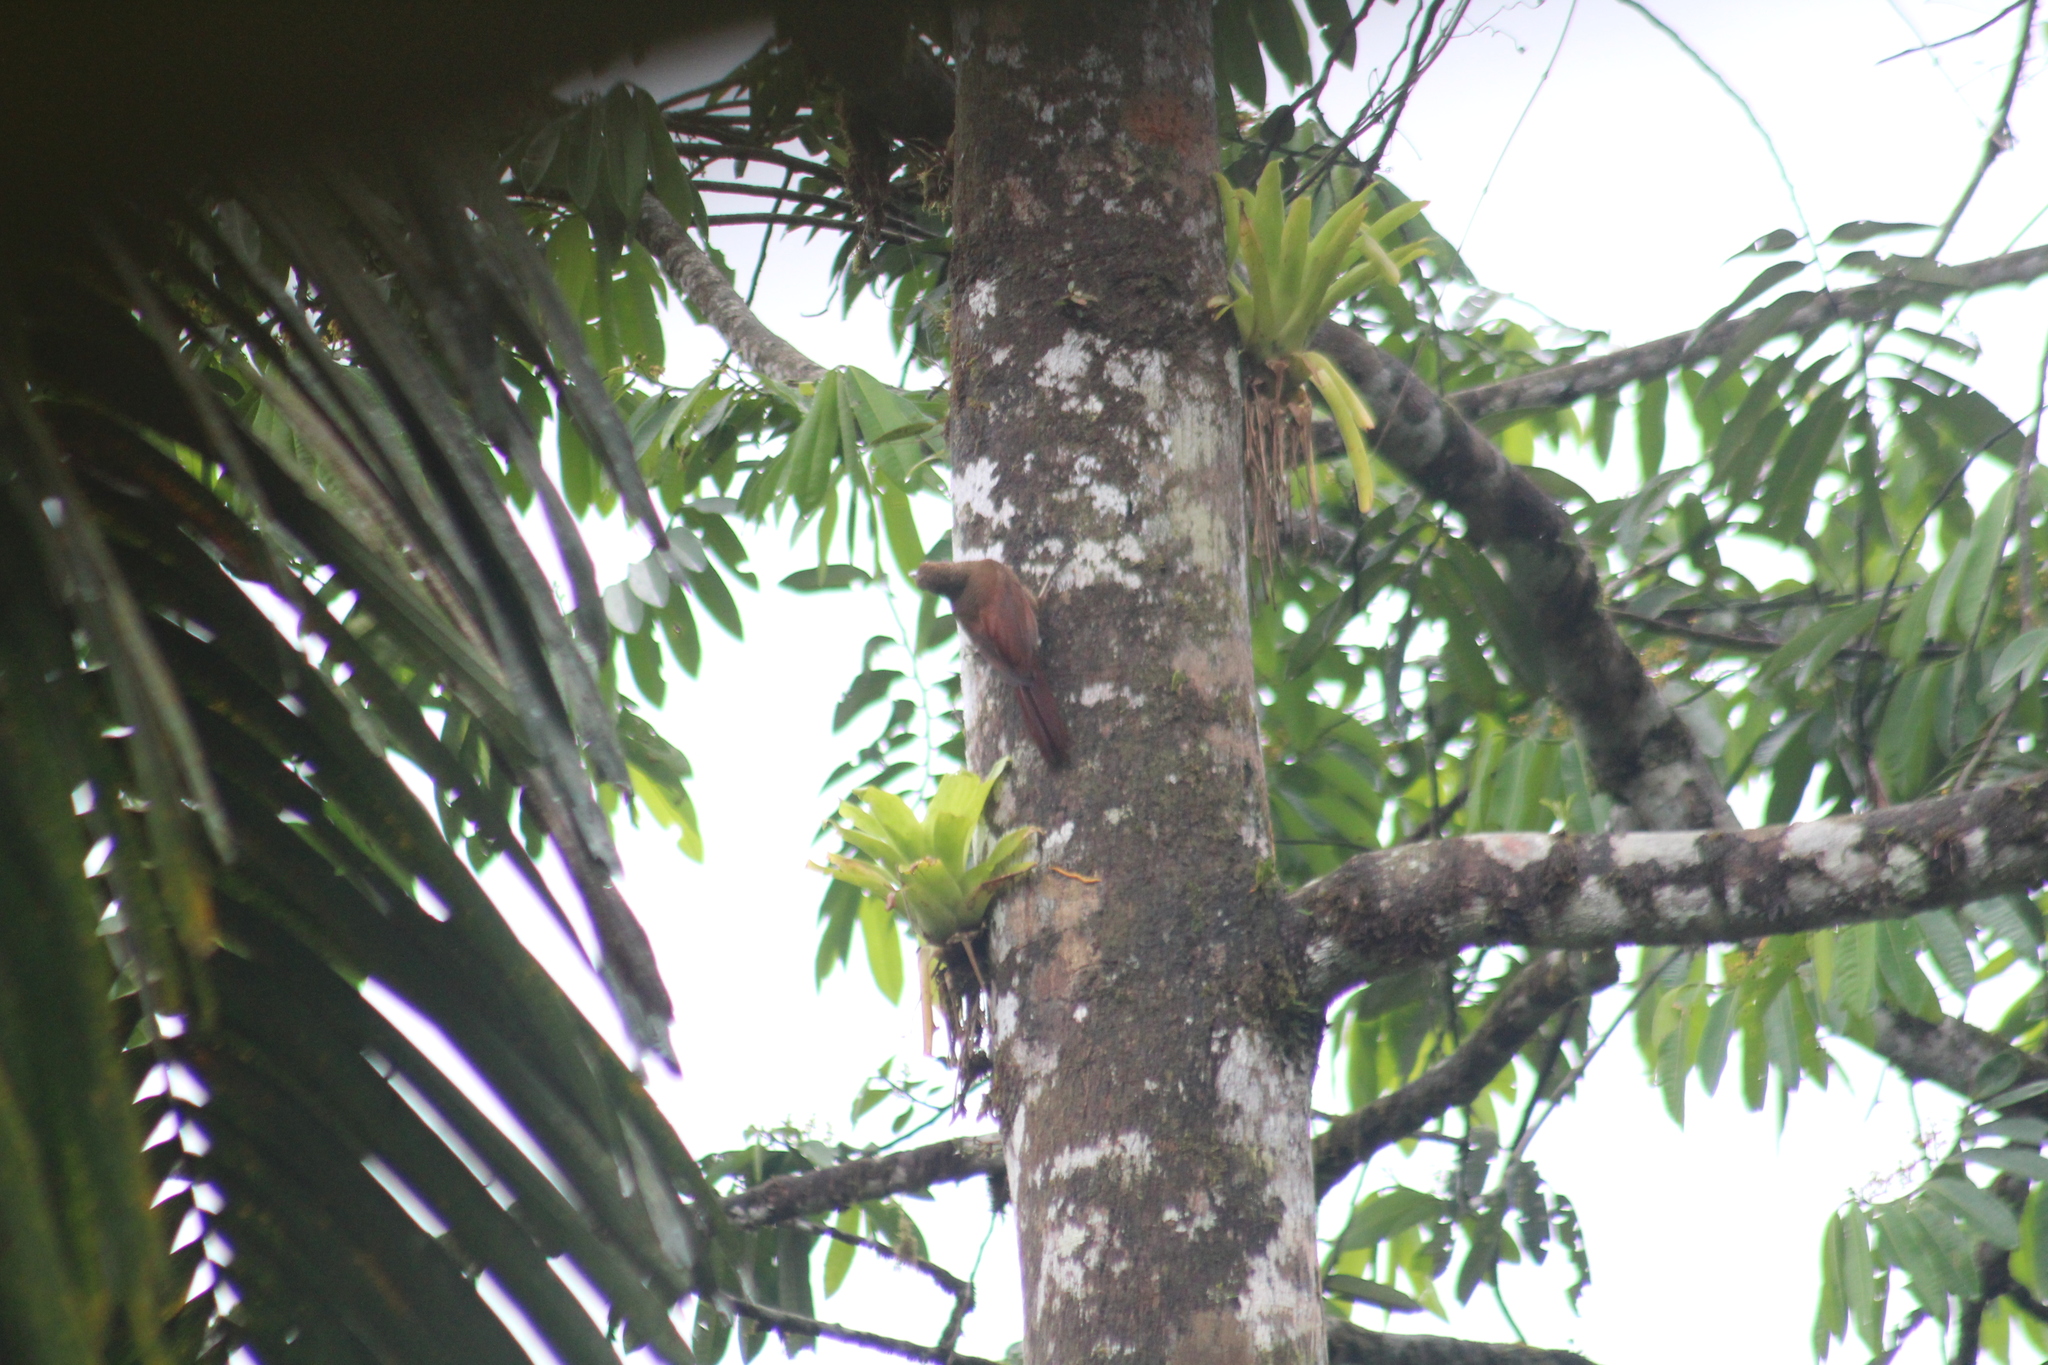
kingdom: Animalia
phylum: Chordata
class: Aves
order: Passeriformes
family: Furnariidae
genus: Dendrocincla
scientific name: Dendrocincla fuliginosa
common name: Plain-brown woodcreeper
